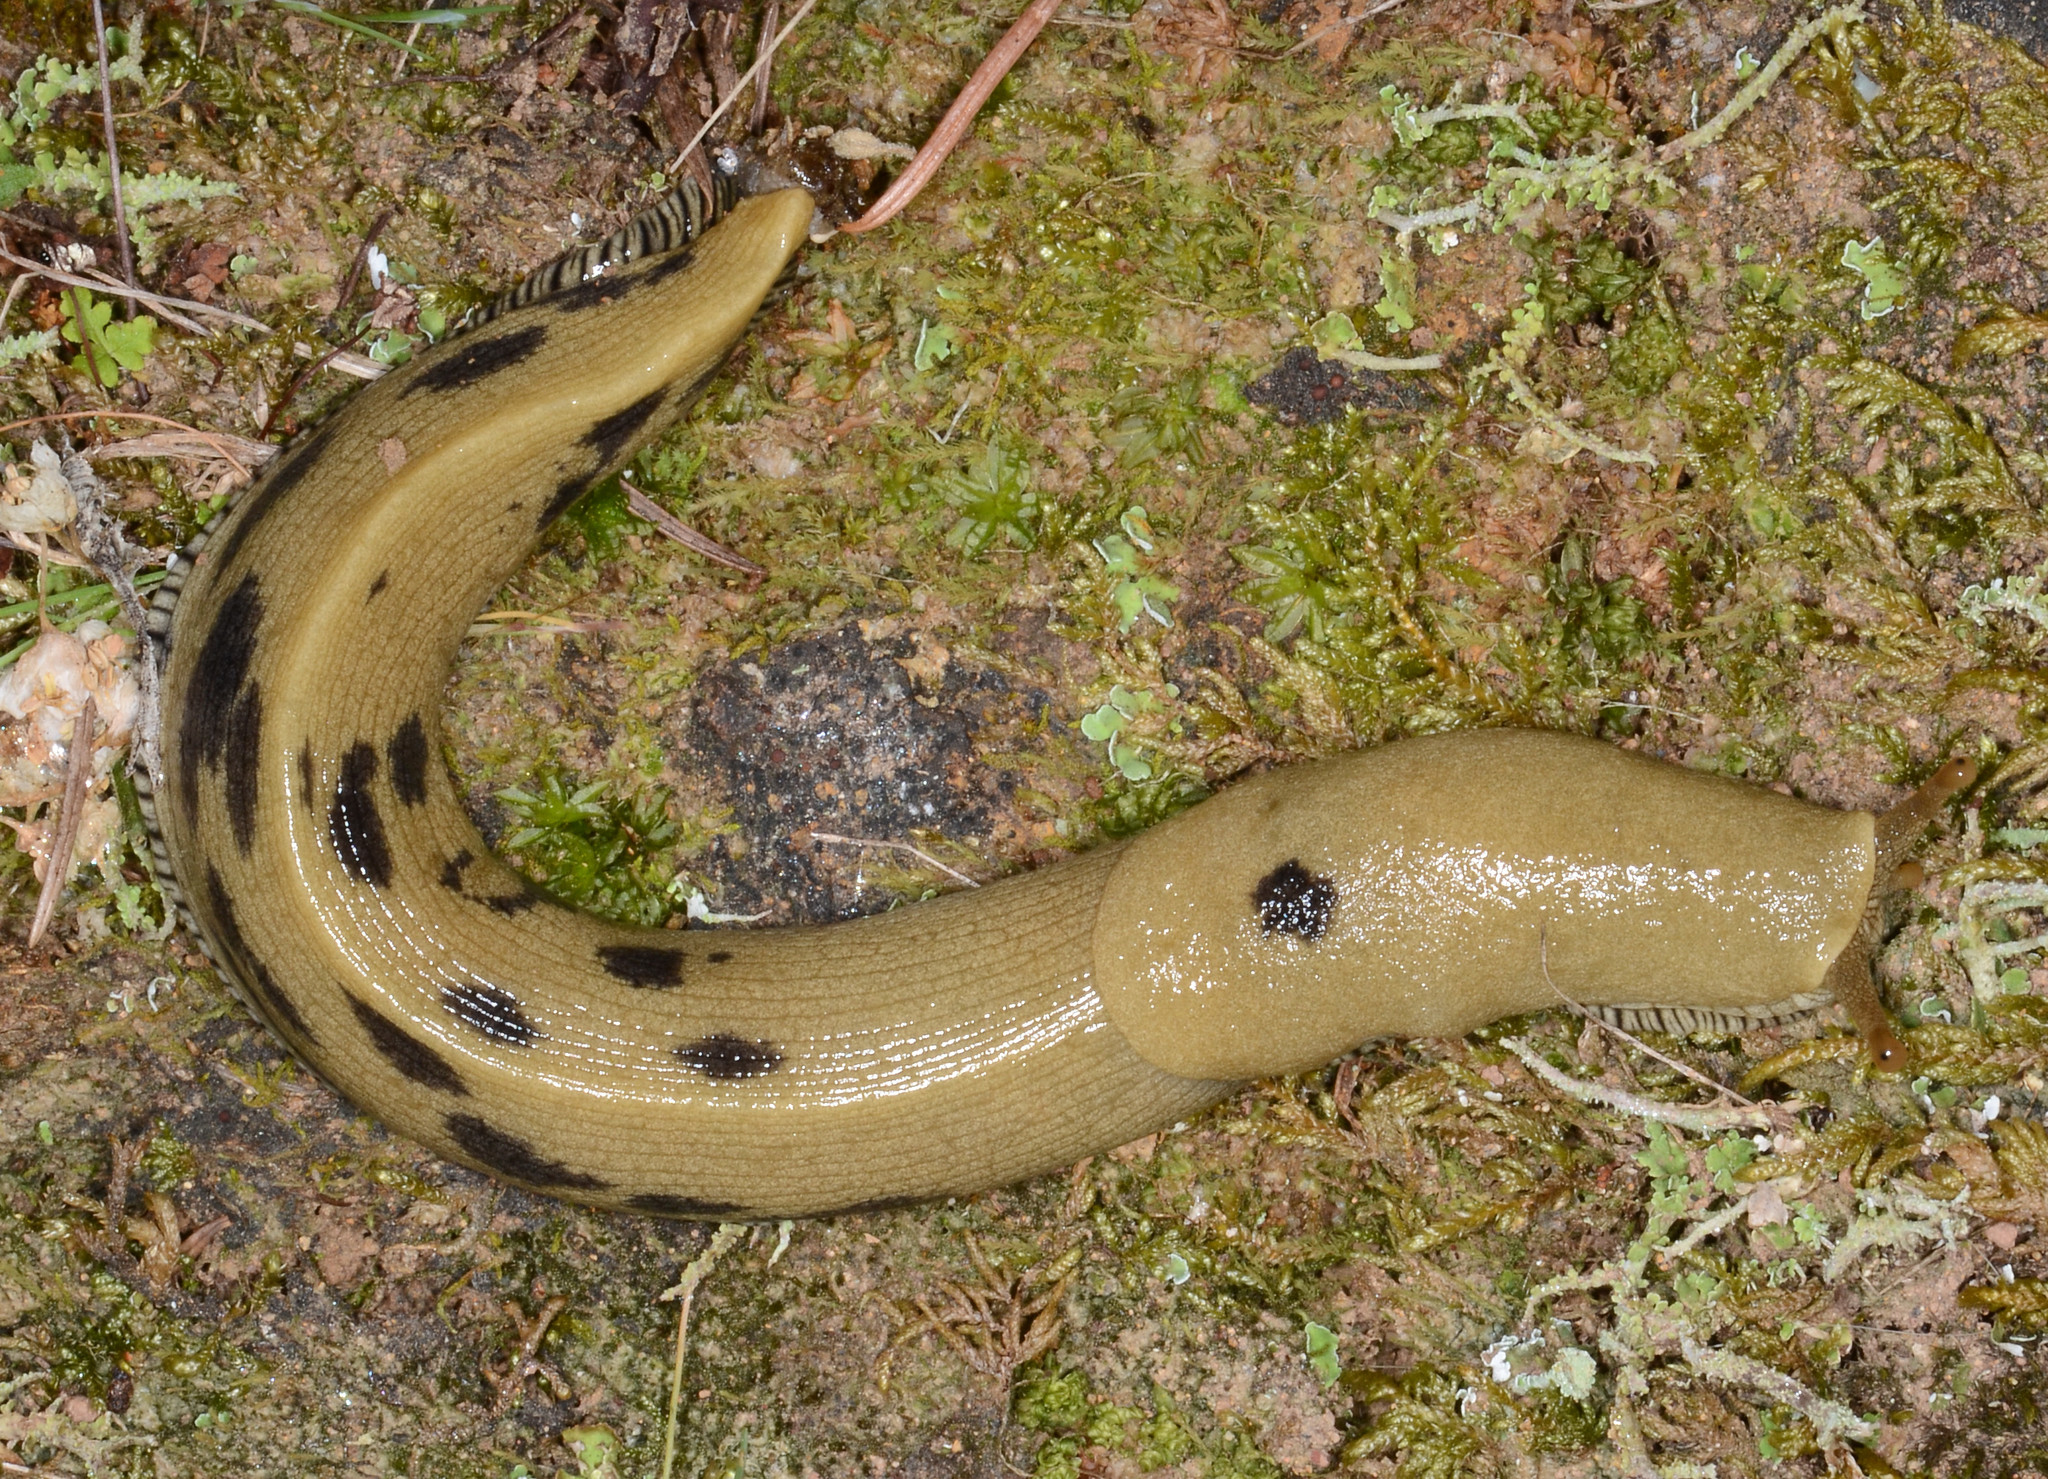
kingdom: Animalia
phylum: Mollusca
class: Gastropoda
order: Stylommatophora
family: Ariolimacidae
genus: Ariolimax
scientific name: Ariolimax buttoni
